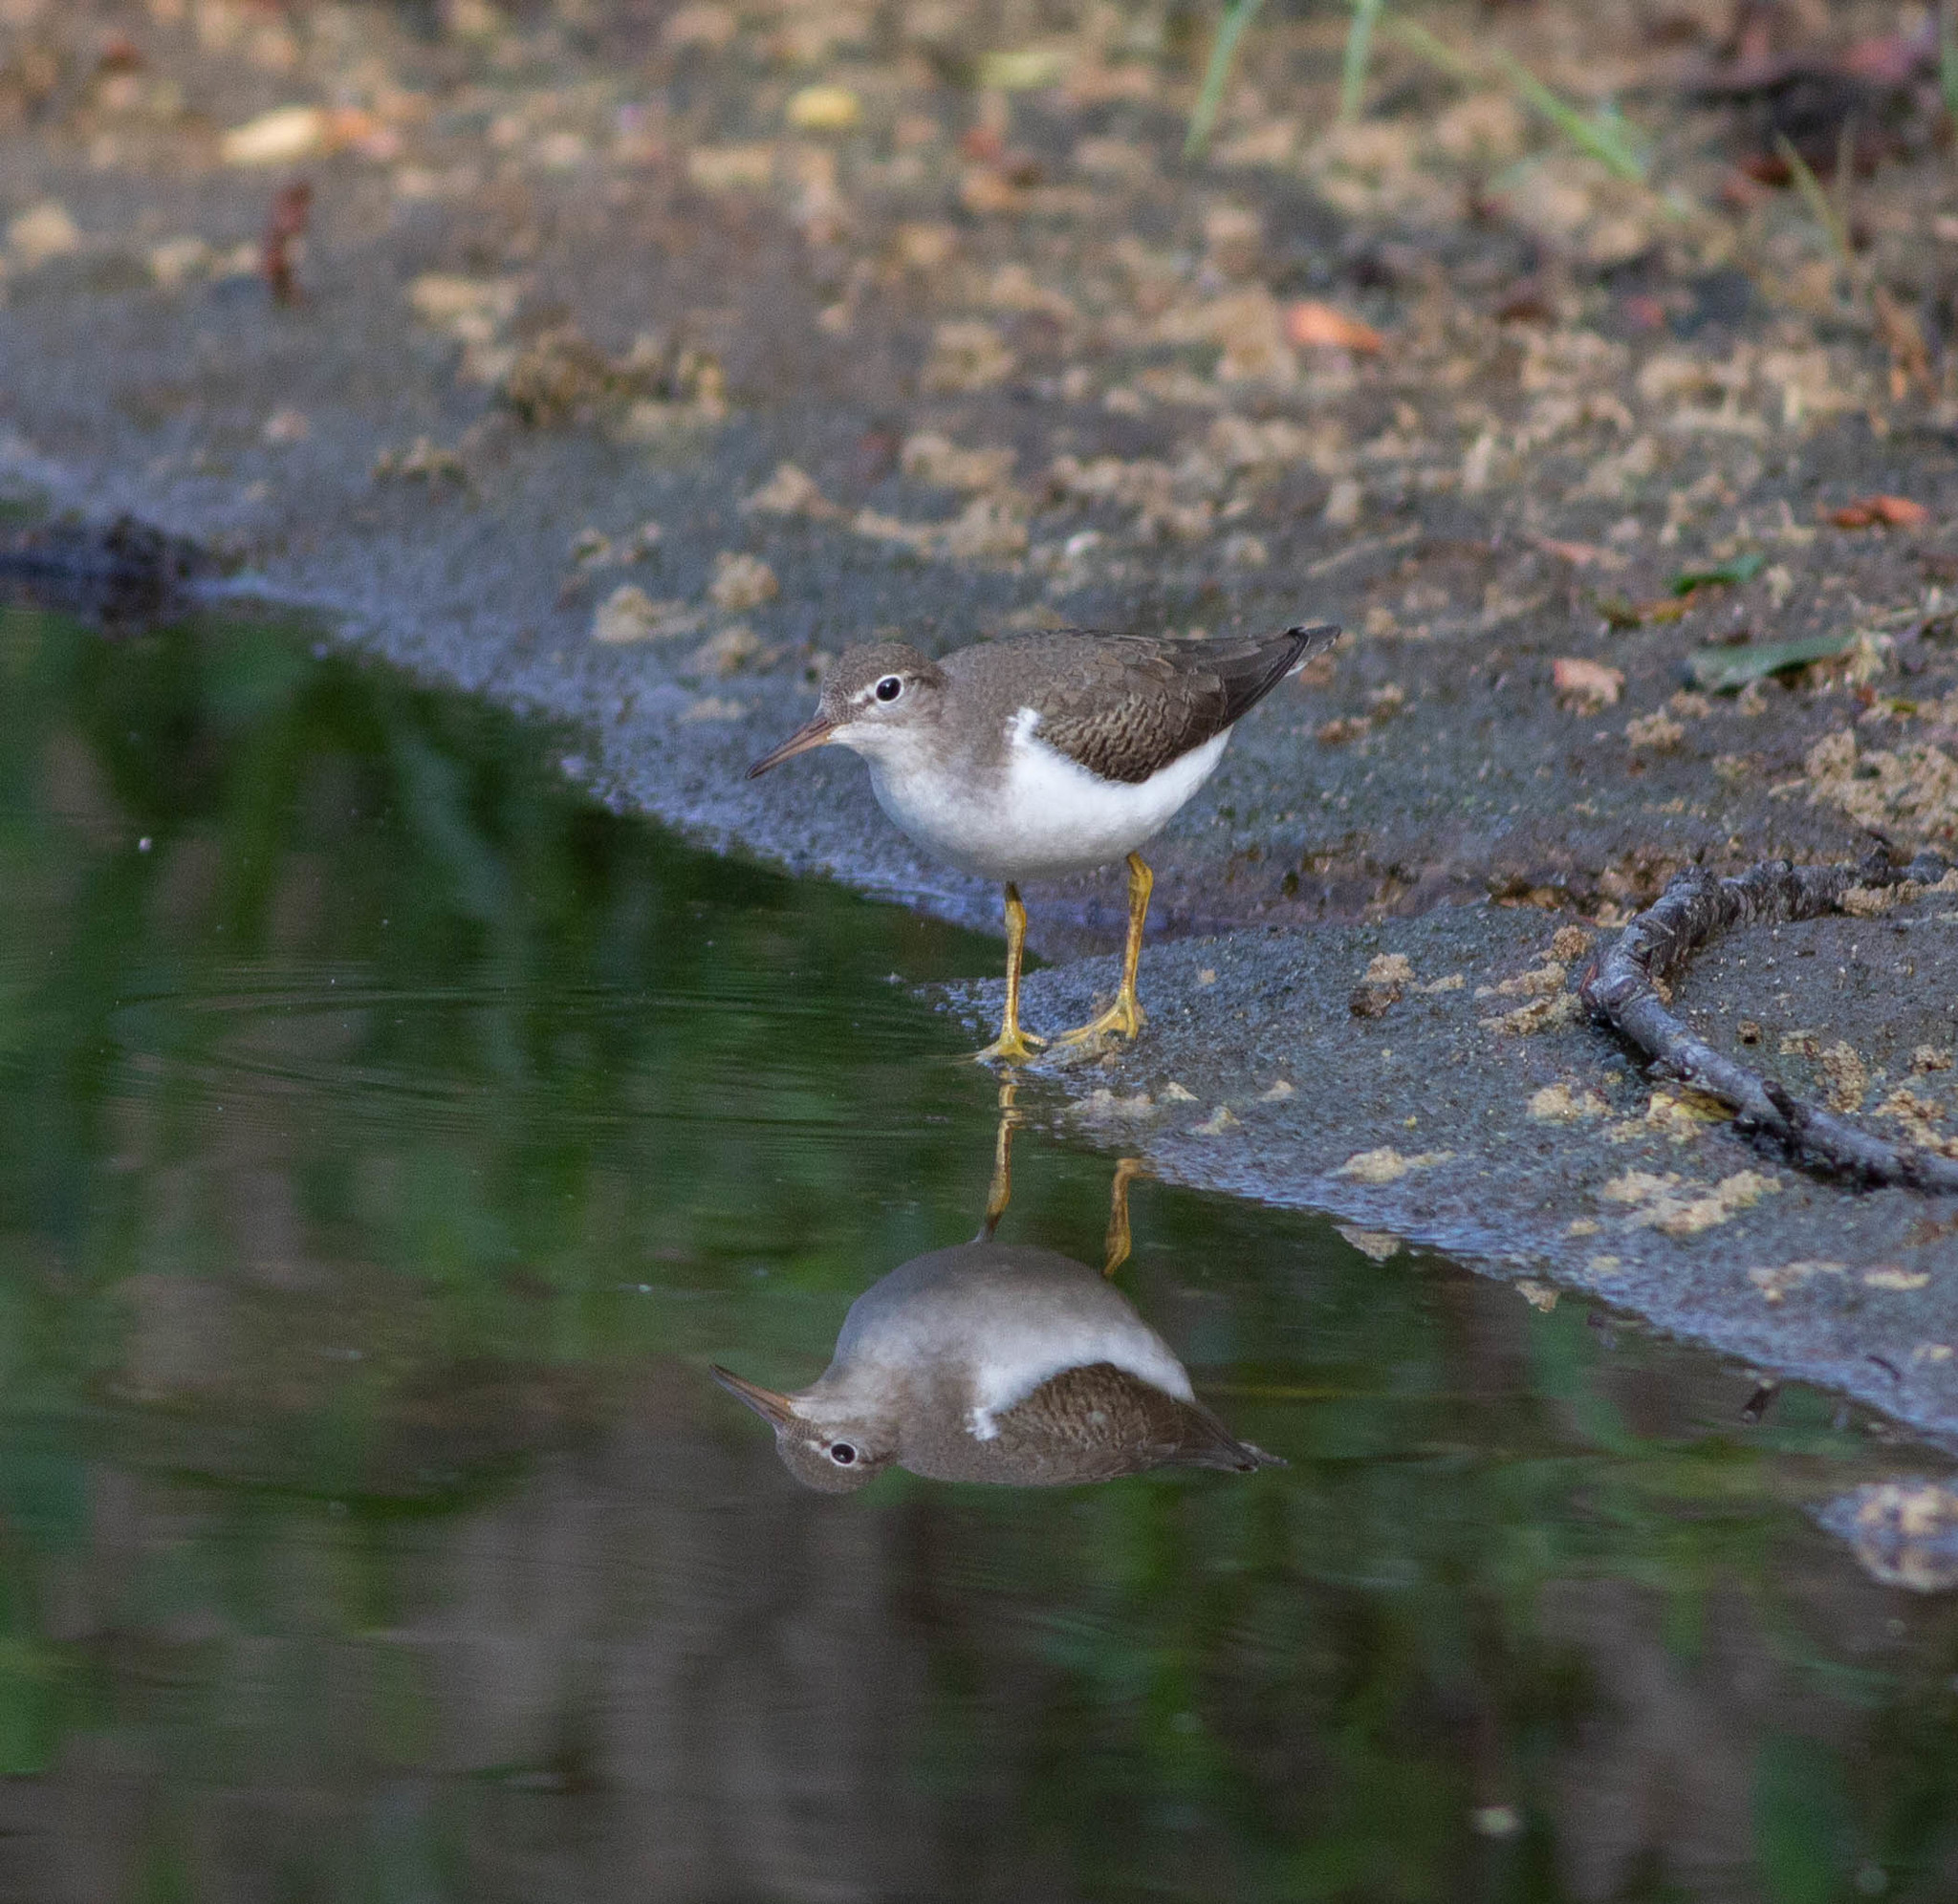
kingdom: Animalia
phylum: Chordata
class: Aves
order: Charadriiformes
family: Scolopacidae
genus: Actitis
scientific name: Actitis macularius
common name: Spotted sandpiper
